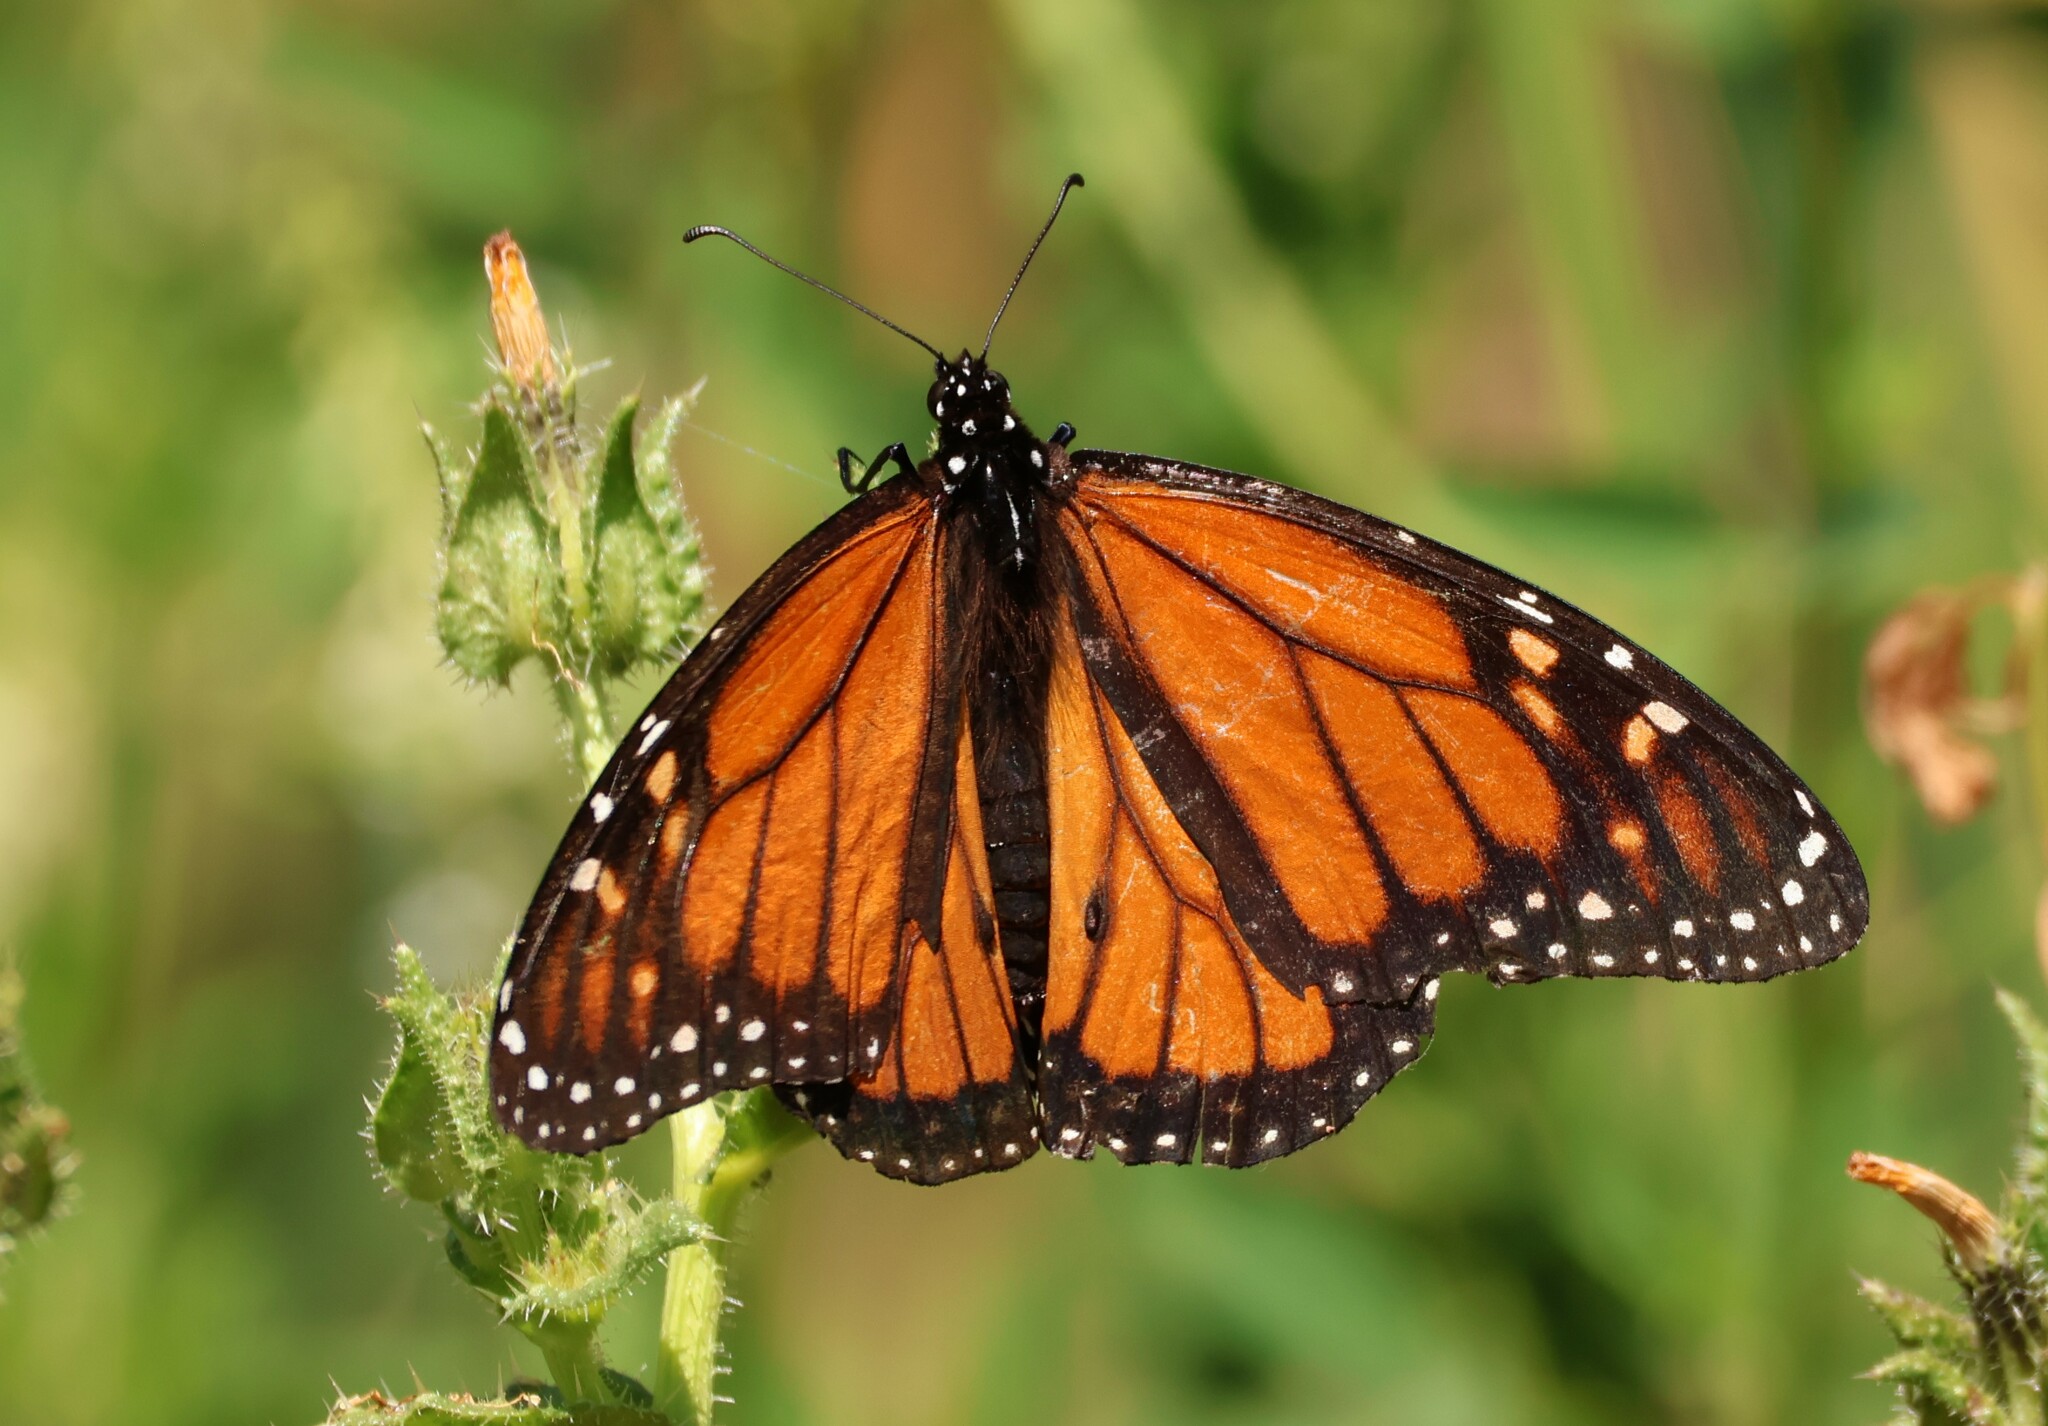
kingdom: Animalia
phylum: Arthropoda
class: Insecta
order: Lepidoptera
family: Nymphalidae
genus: Danaus
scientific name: Danaus plexippus
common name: Monarch
